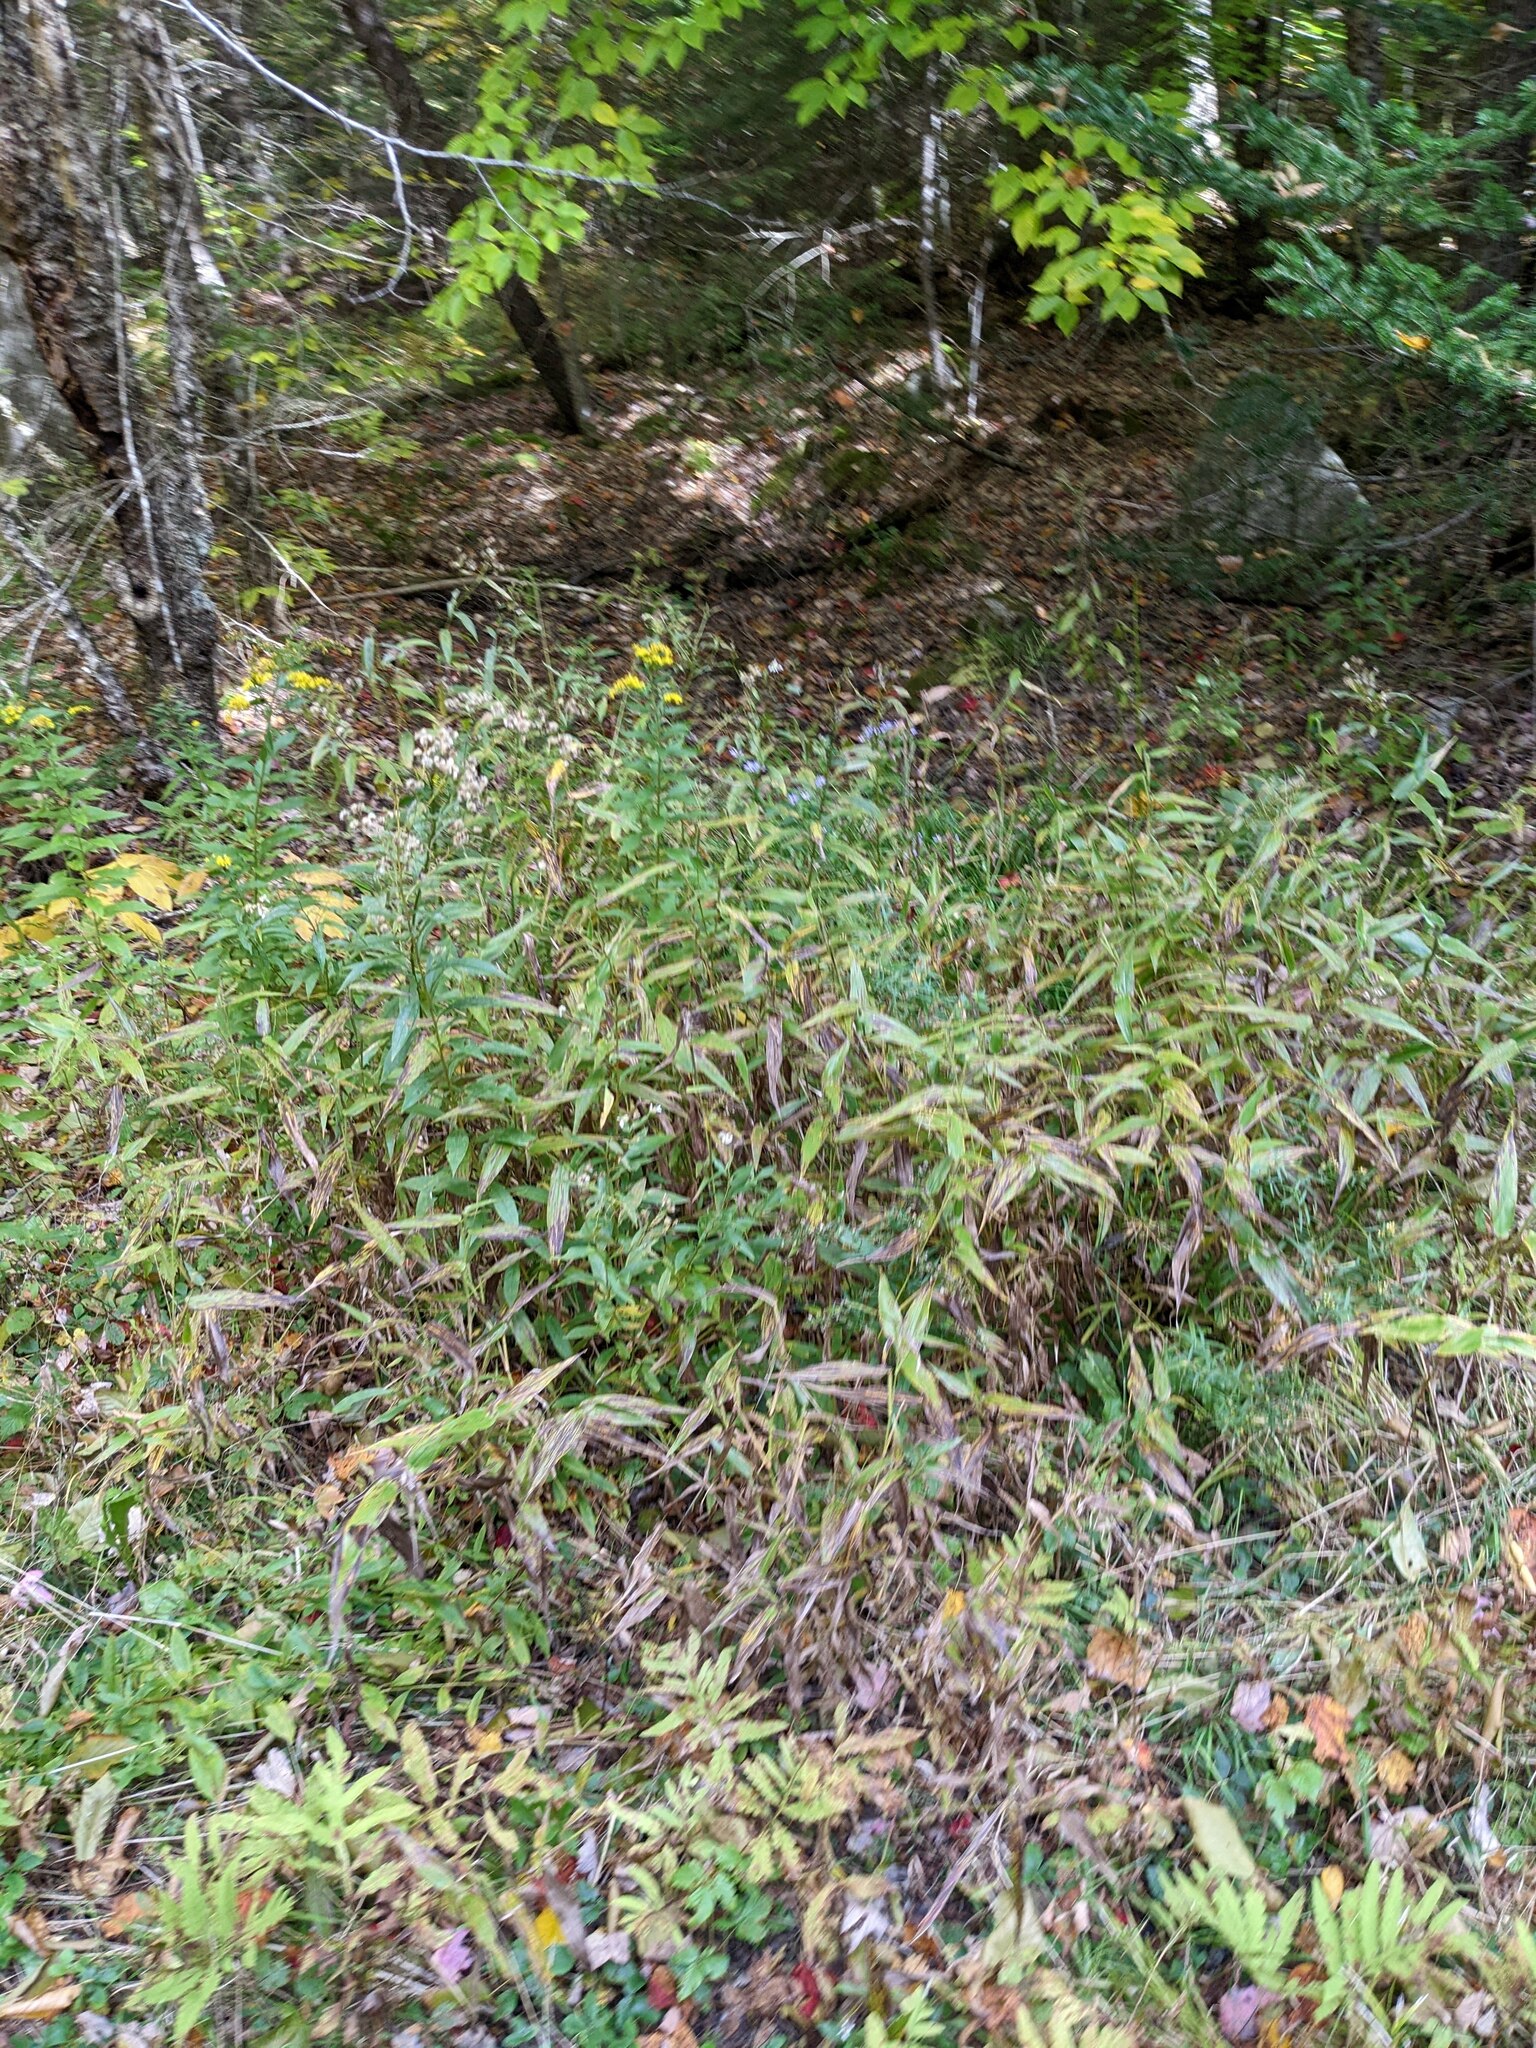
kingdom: Plantae
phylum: Tracheophyta
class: Liliopsida
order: Poales
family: Poaceae
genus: Dichanthelium
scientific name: Dichanthelium clandestinum
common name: Deer-tongue grass
